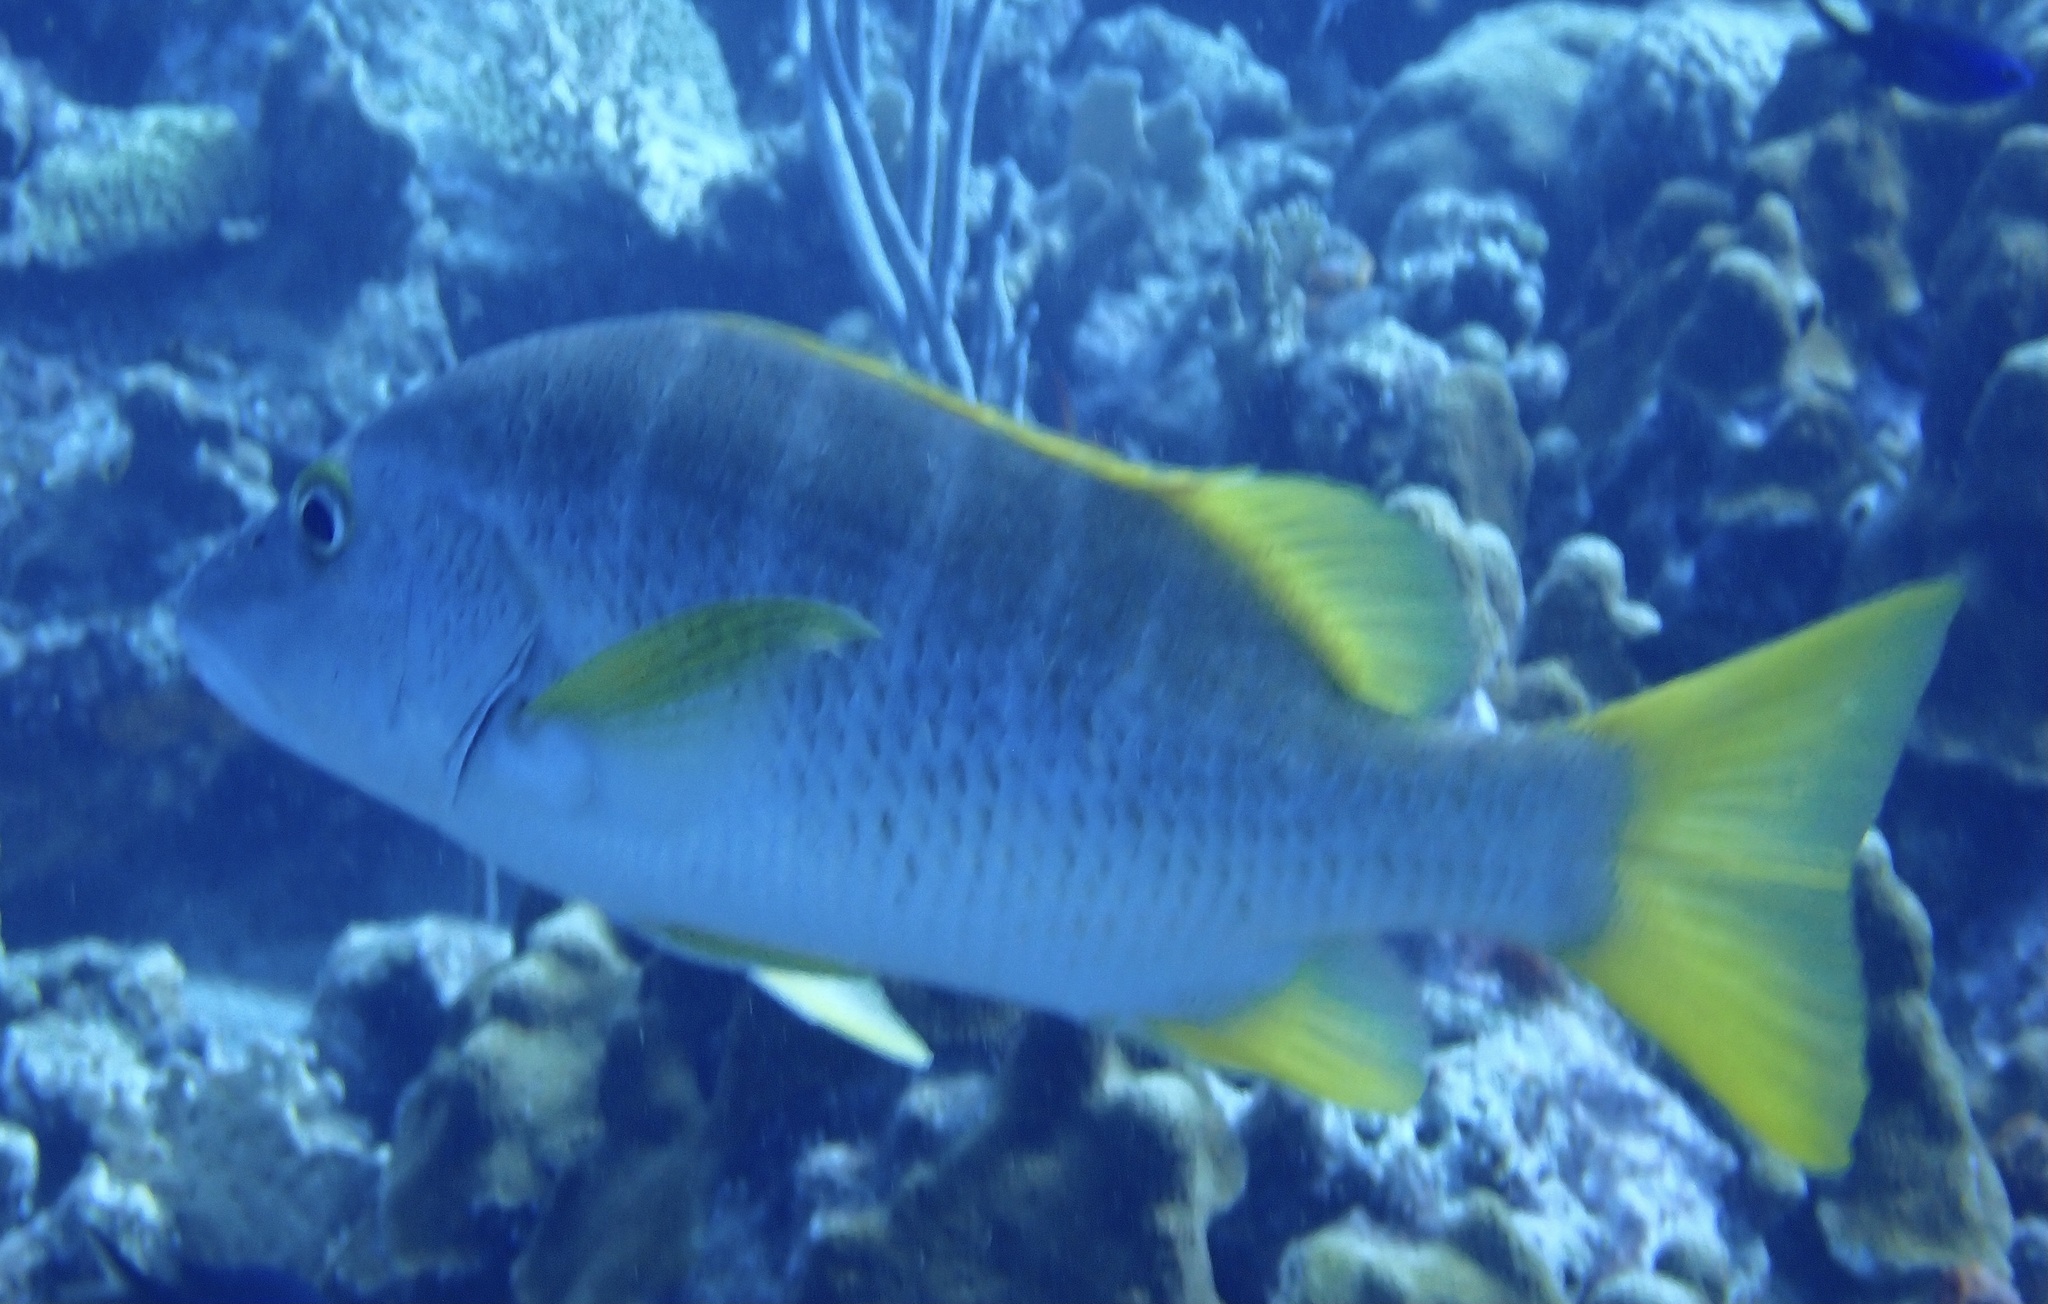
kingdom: Animalia
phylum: Chordata
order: Perciformes
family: Lutjanidae
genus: Lutjanus
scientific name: Lutjanus apodus
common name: Schoolmaster
